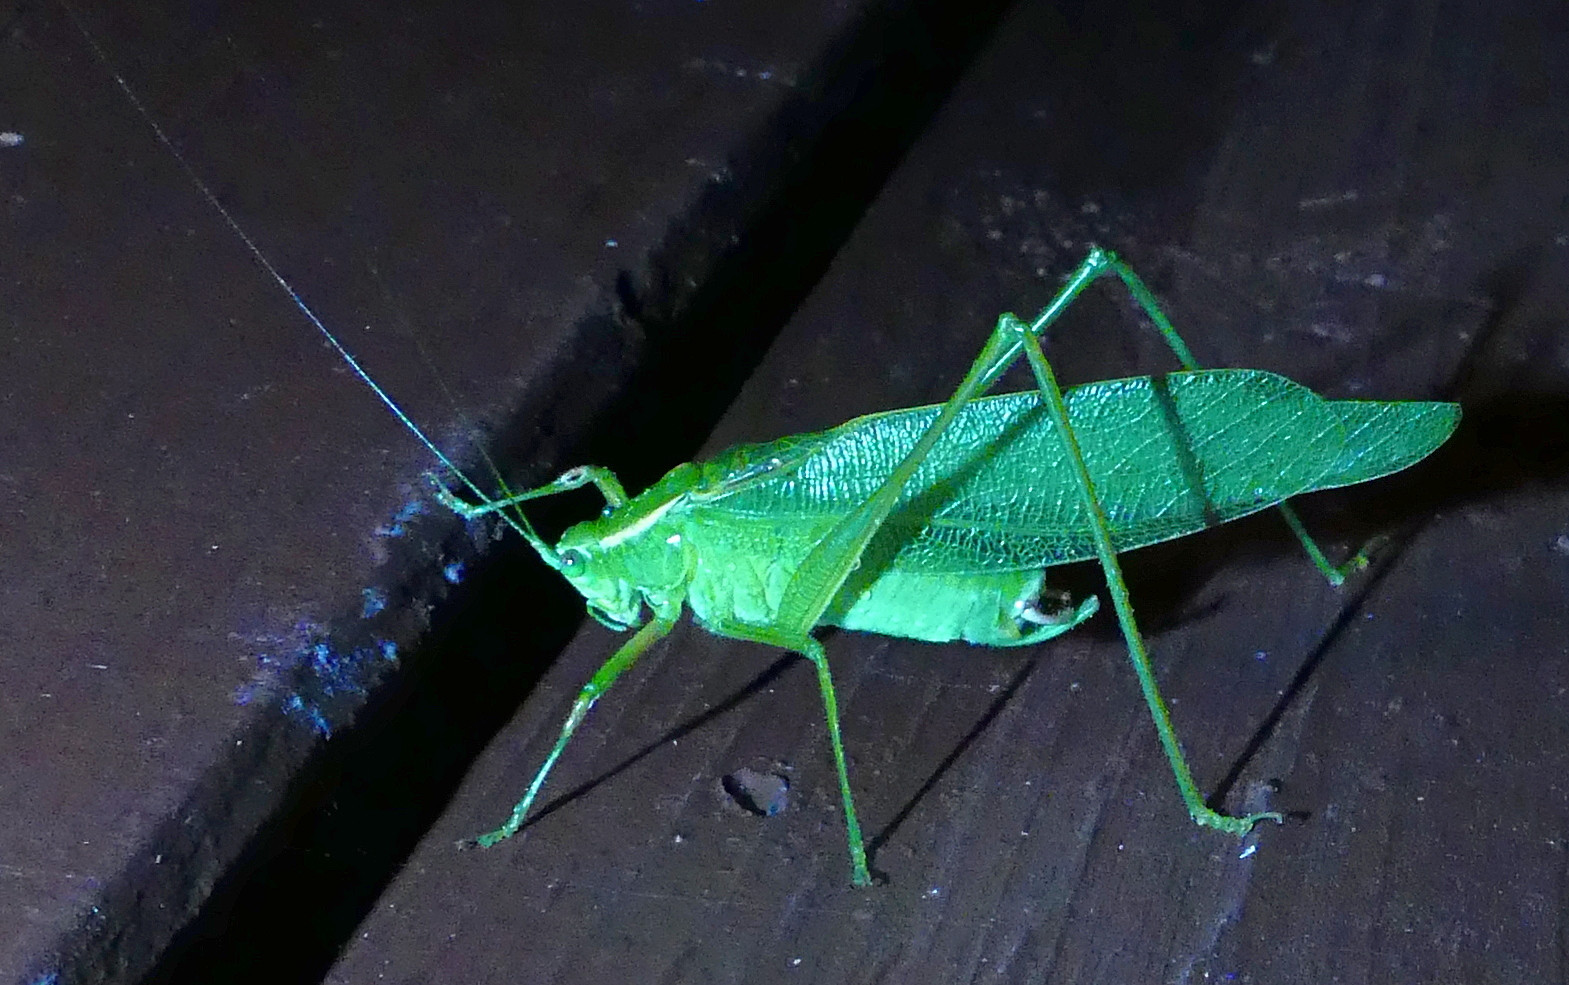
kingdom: Animalia
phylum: Arthropoda
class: Insecta
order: Orthoptera
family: Tettigoniidae
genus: Scudderia
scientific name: Scudderia septentrionalis
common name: Northern bush-katydid
